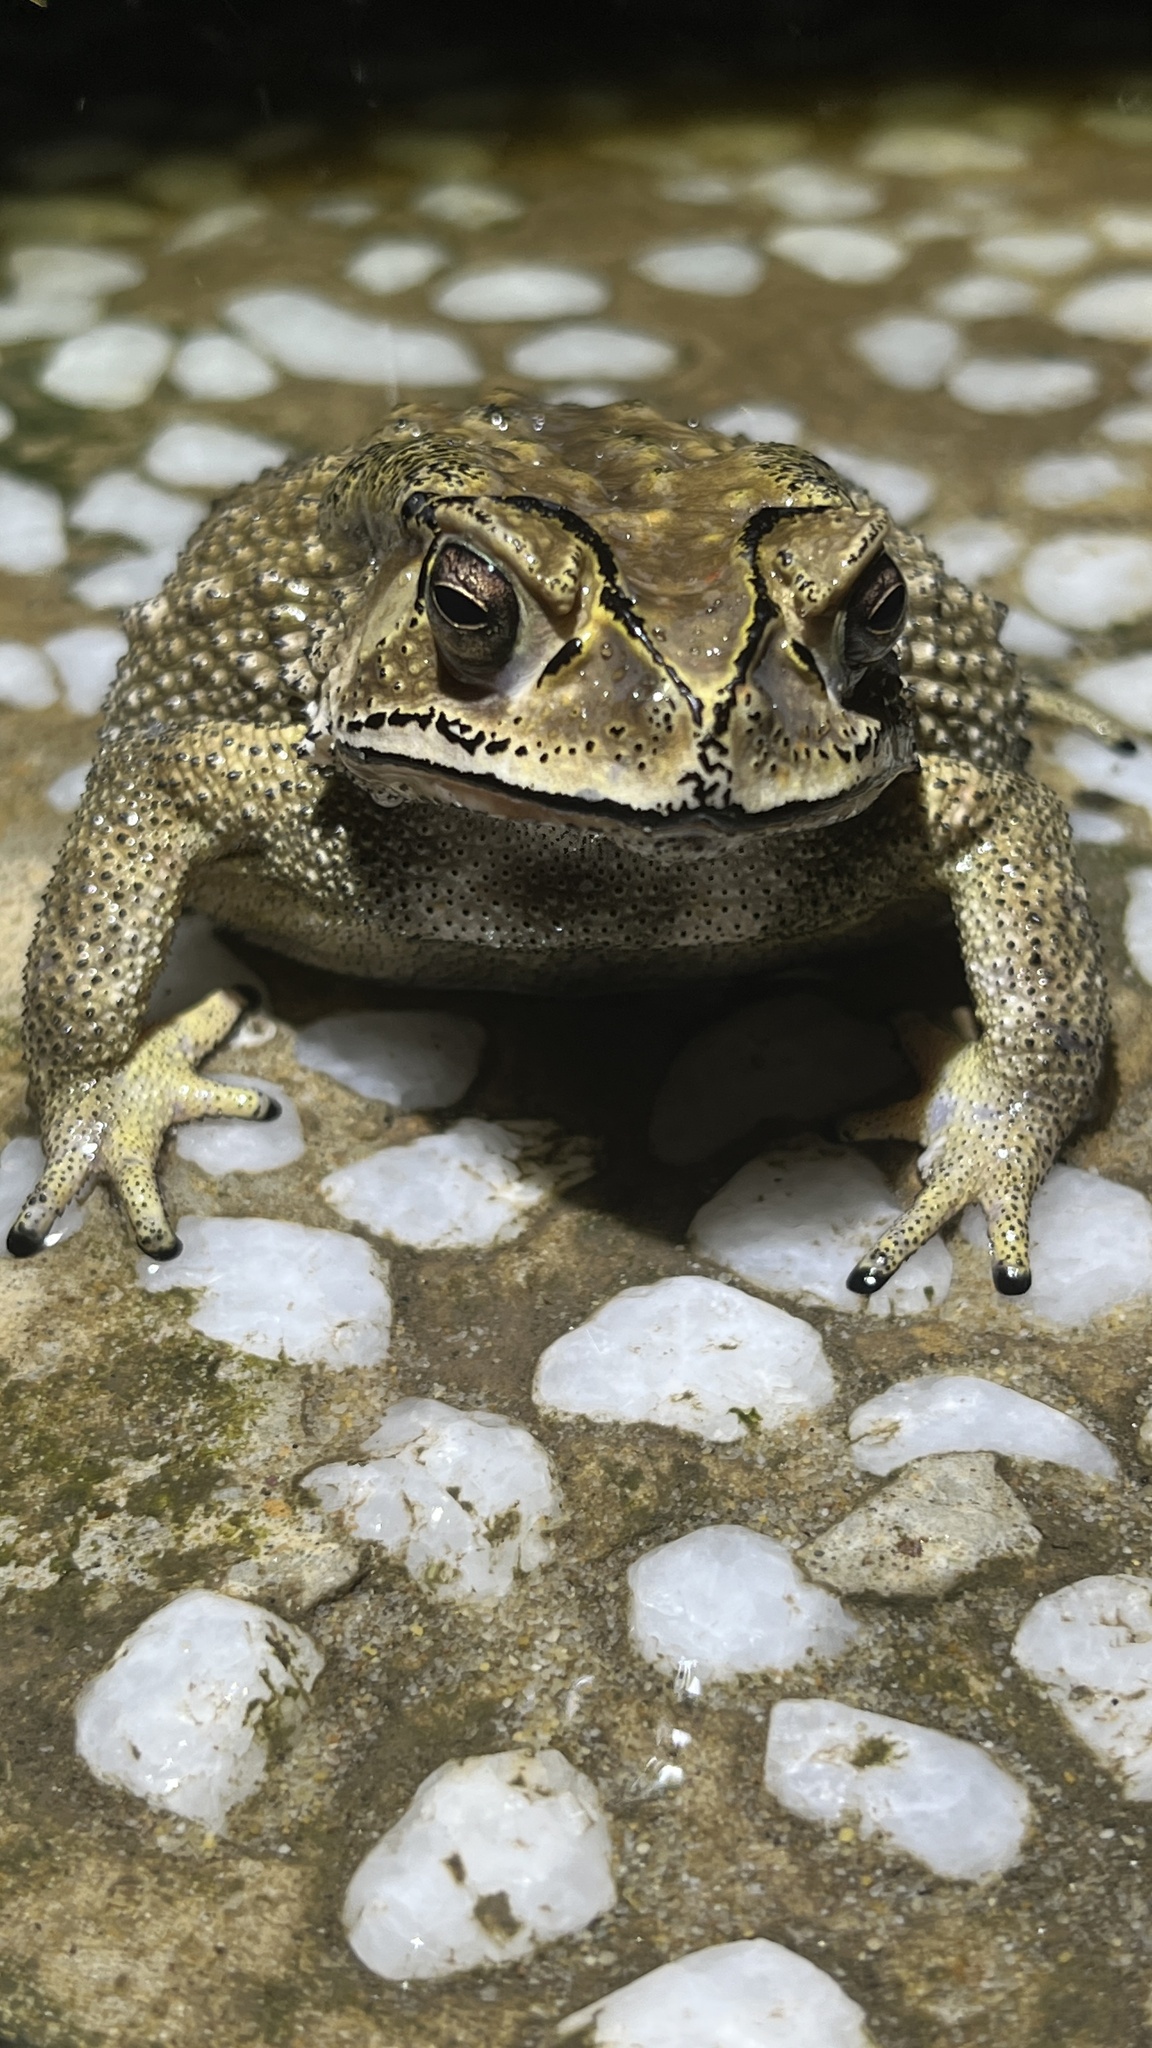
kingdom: Animalia
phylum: Chordata
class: Amphibia
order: Anura
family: Bufonidae
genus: Duttaphrynus
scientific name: Duttaphrynus melanostictus
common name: Common sunda toad
